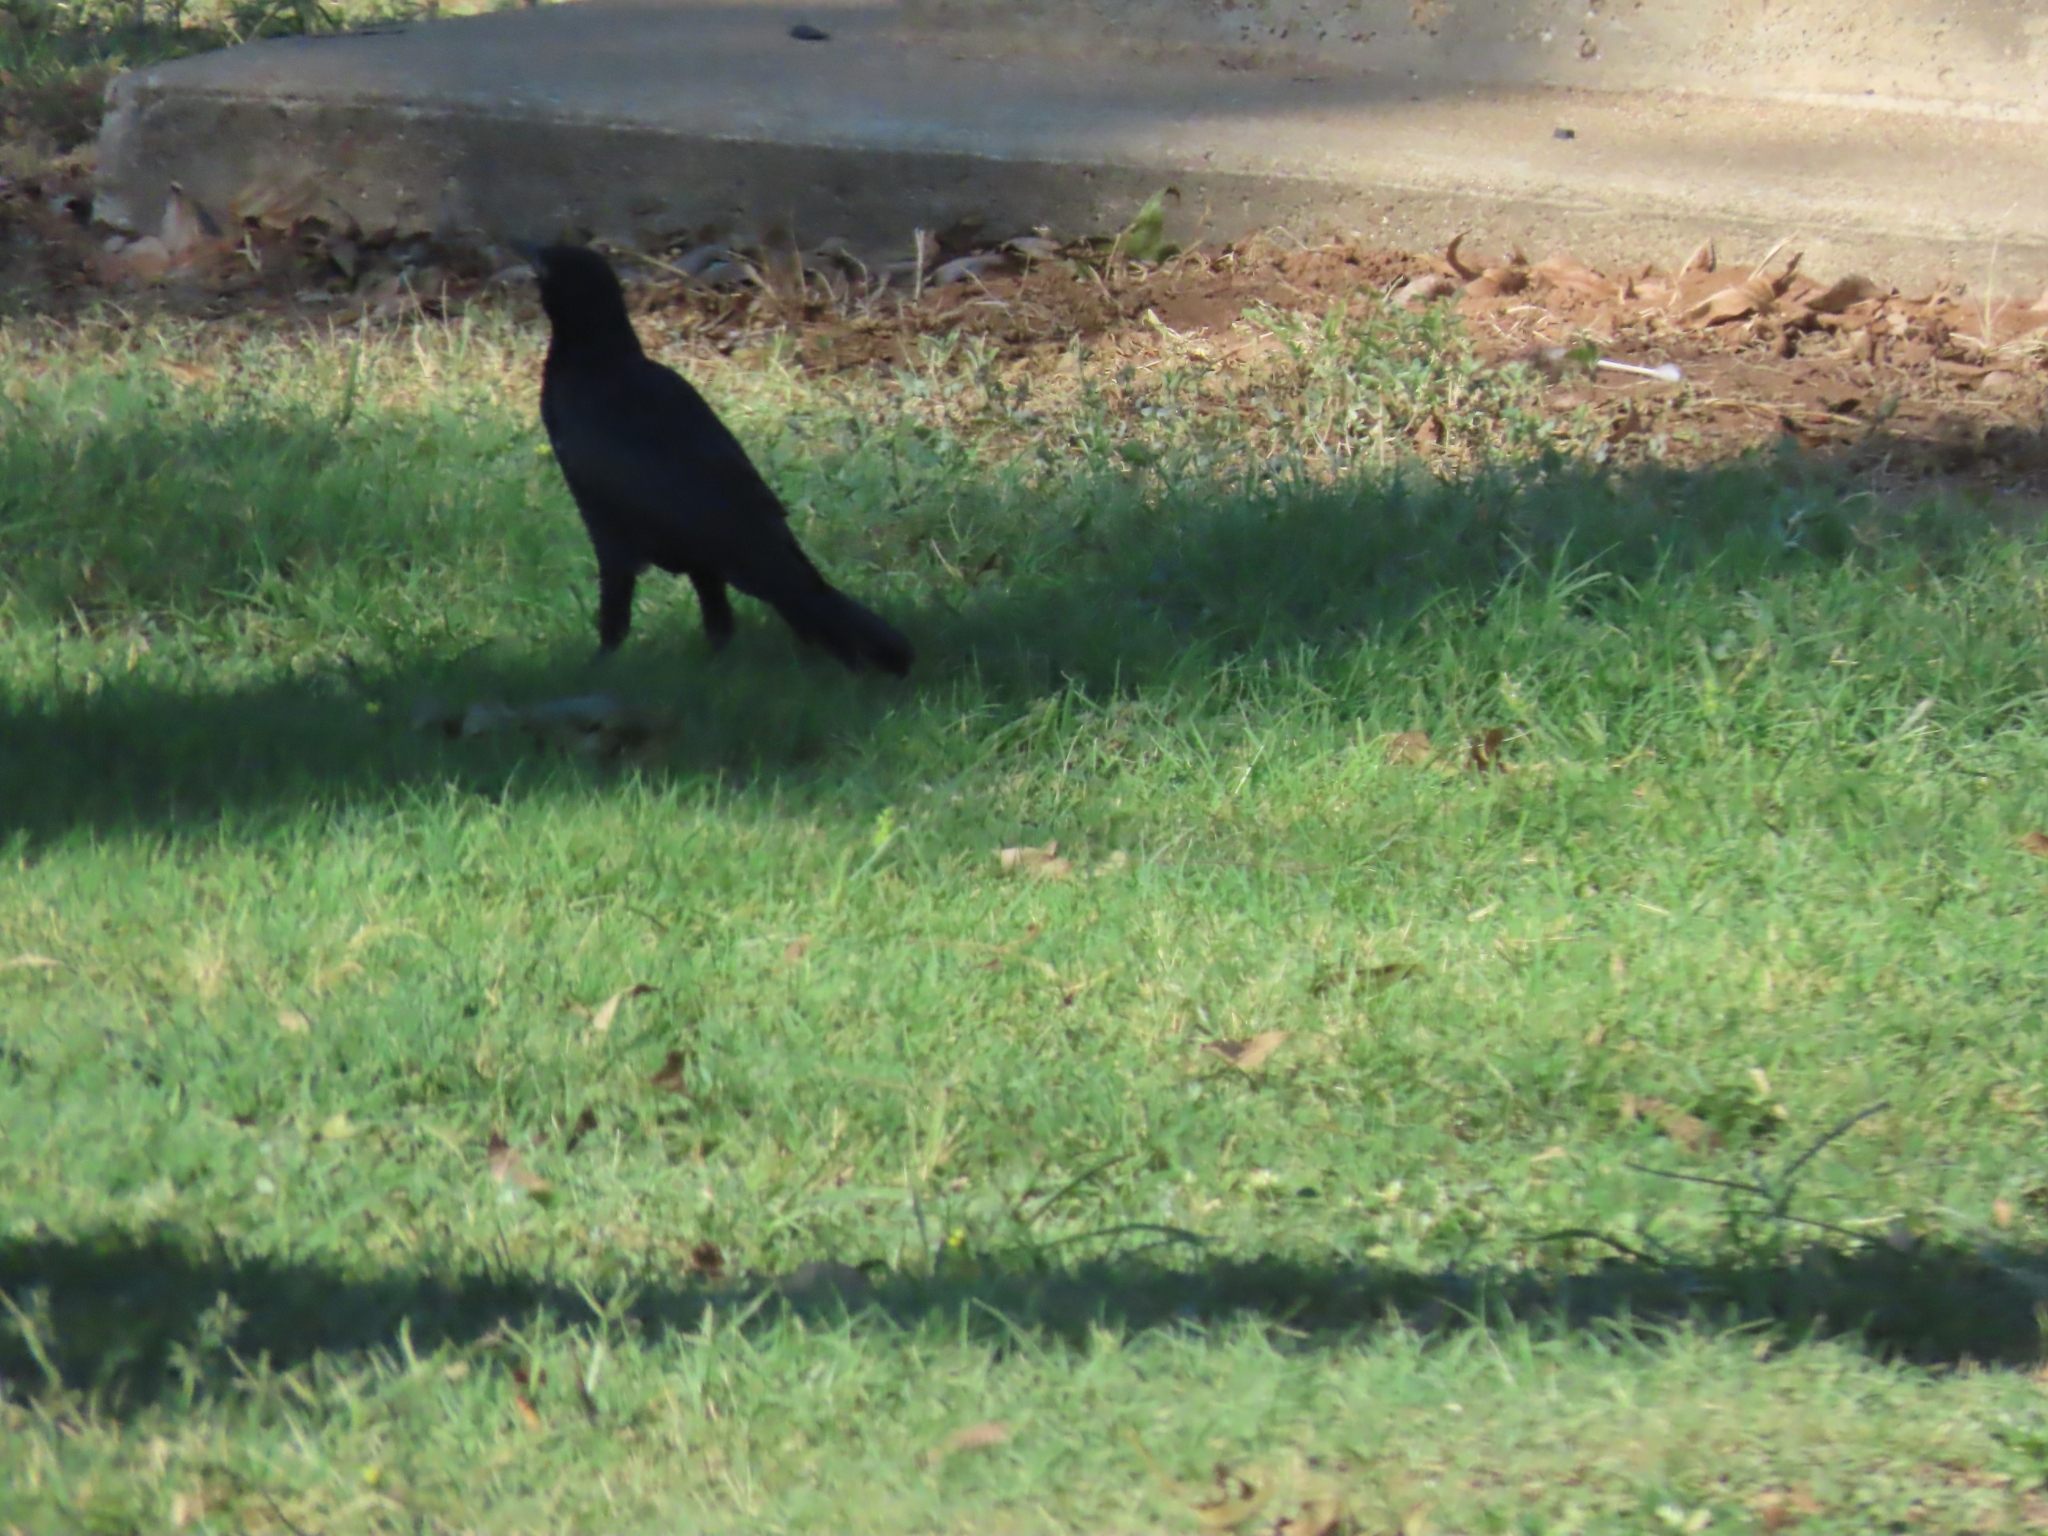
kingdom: Animalia
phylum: Chordata
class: Aves
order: Passeriformes
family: Icteridae
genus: Quiscalus
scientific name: Quiscalus mexicanus
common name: Great-tailed grackle
